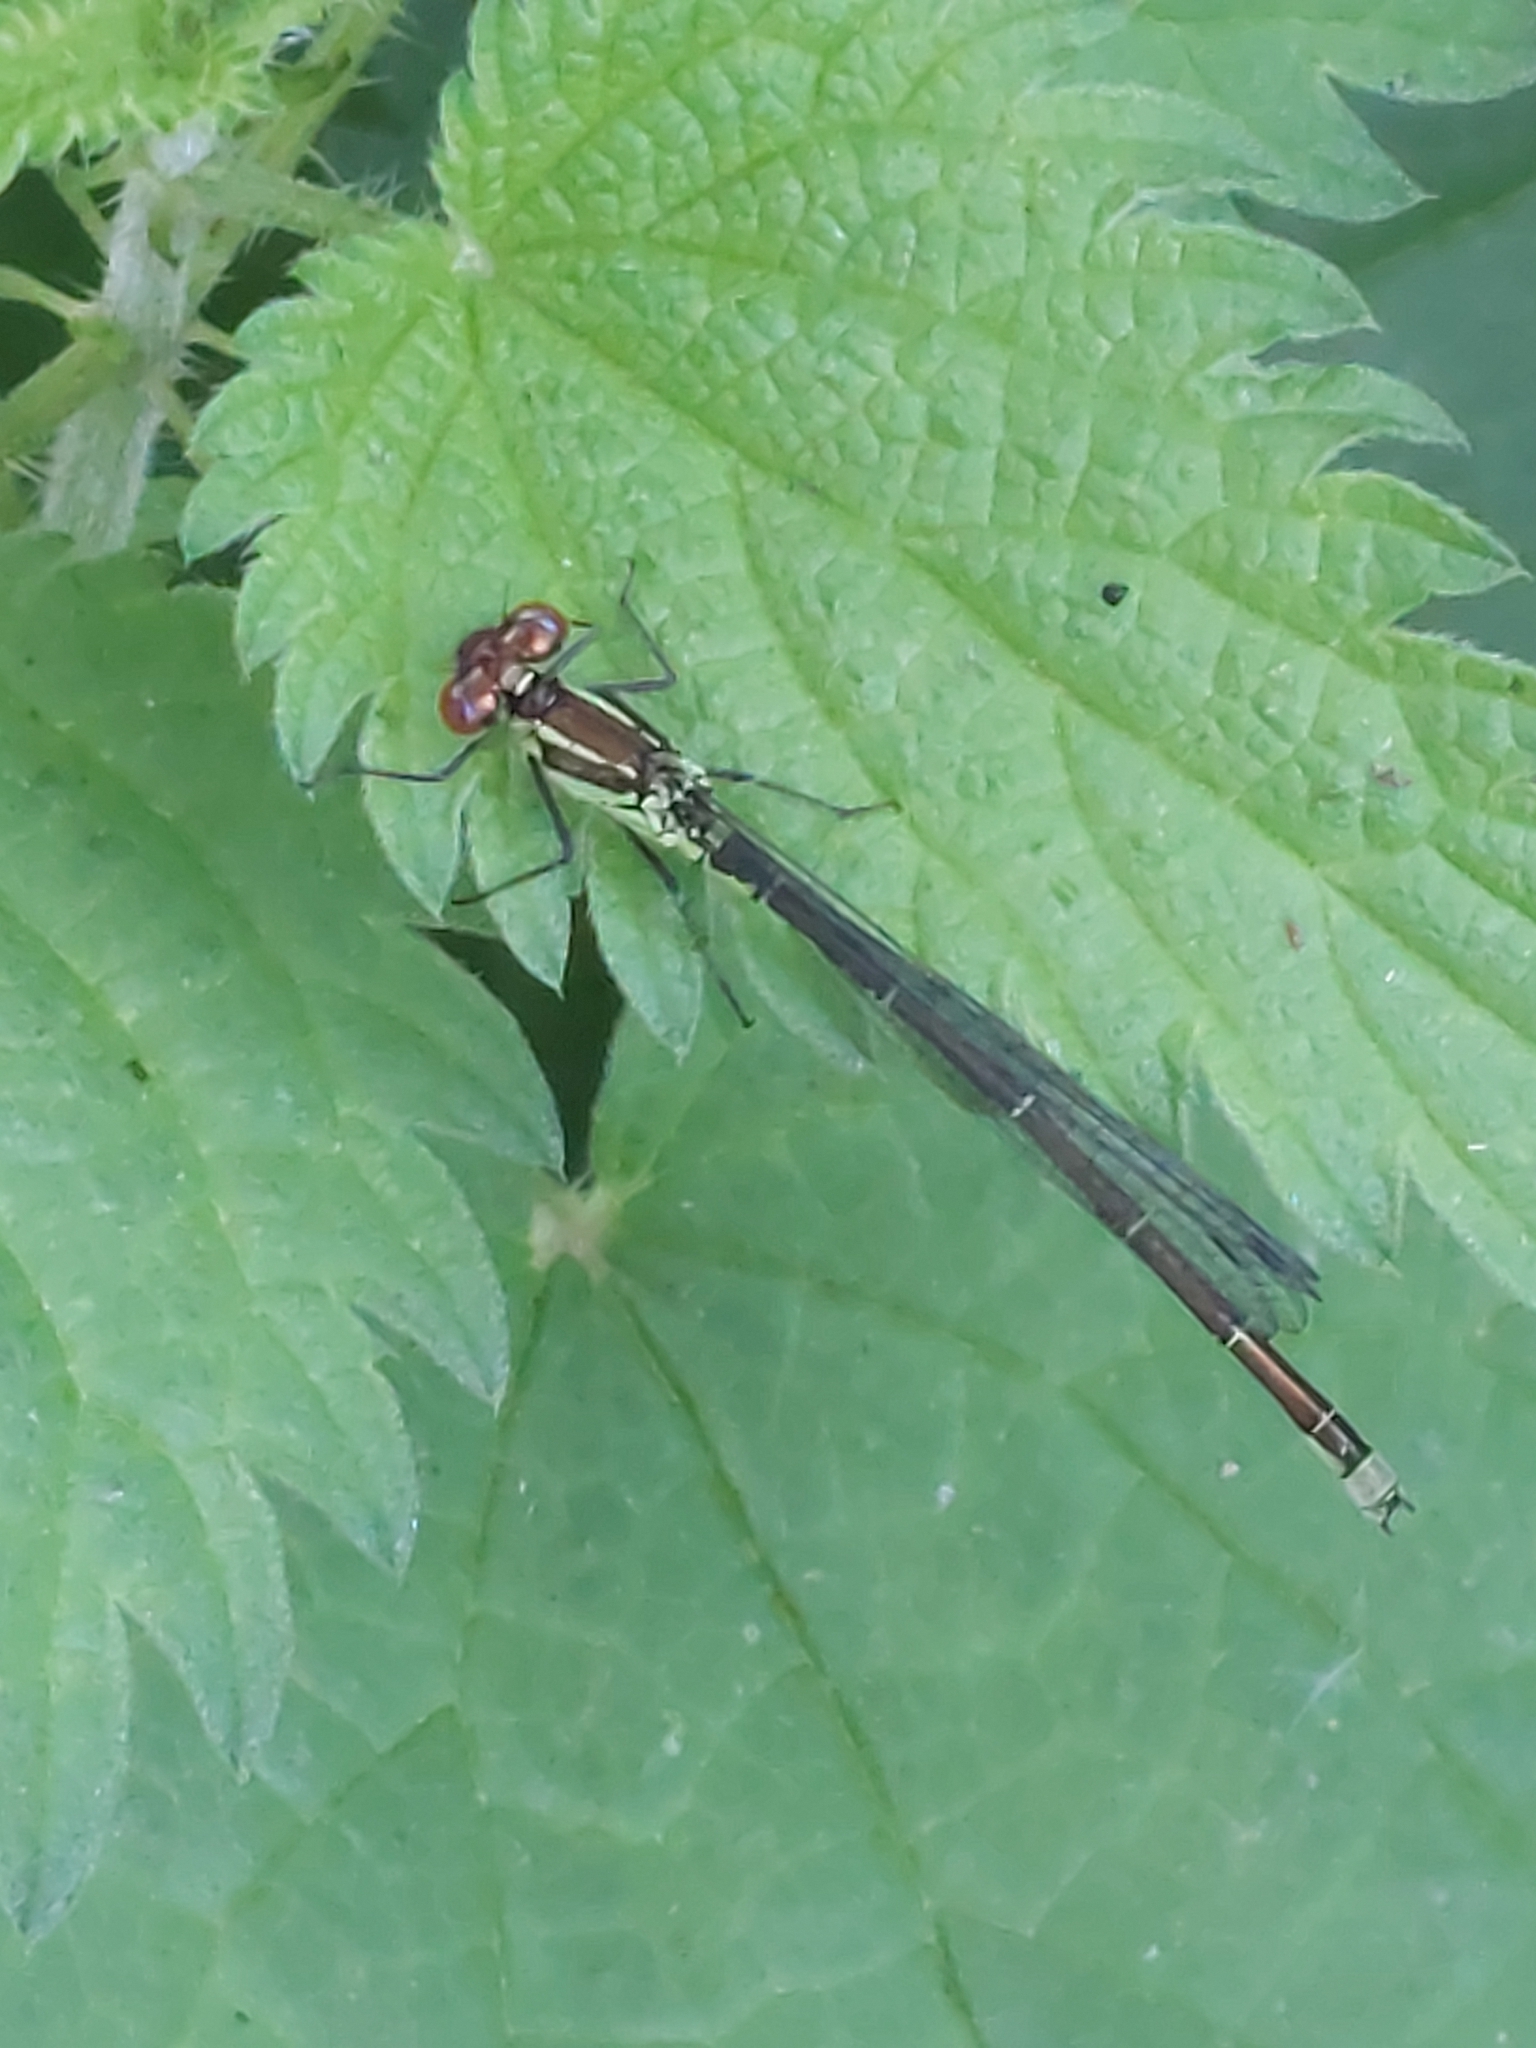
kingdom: Animalia
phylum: Arthropoda
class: Insecta
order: Odonata
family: Coenagrionidae
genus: Erythromma
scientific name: Erythromma viridulum
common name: Small red-eyed damselfly
